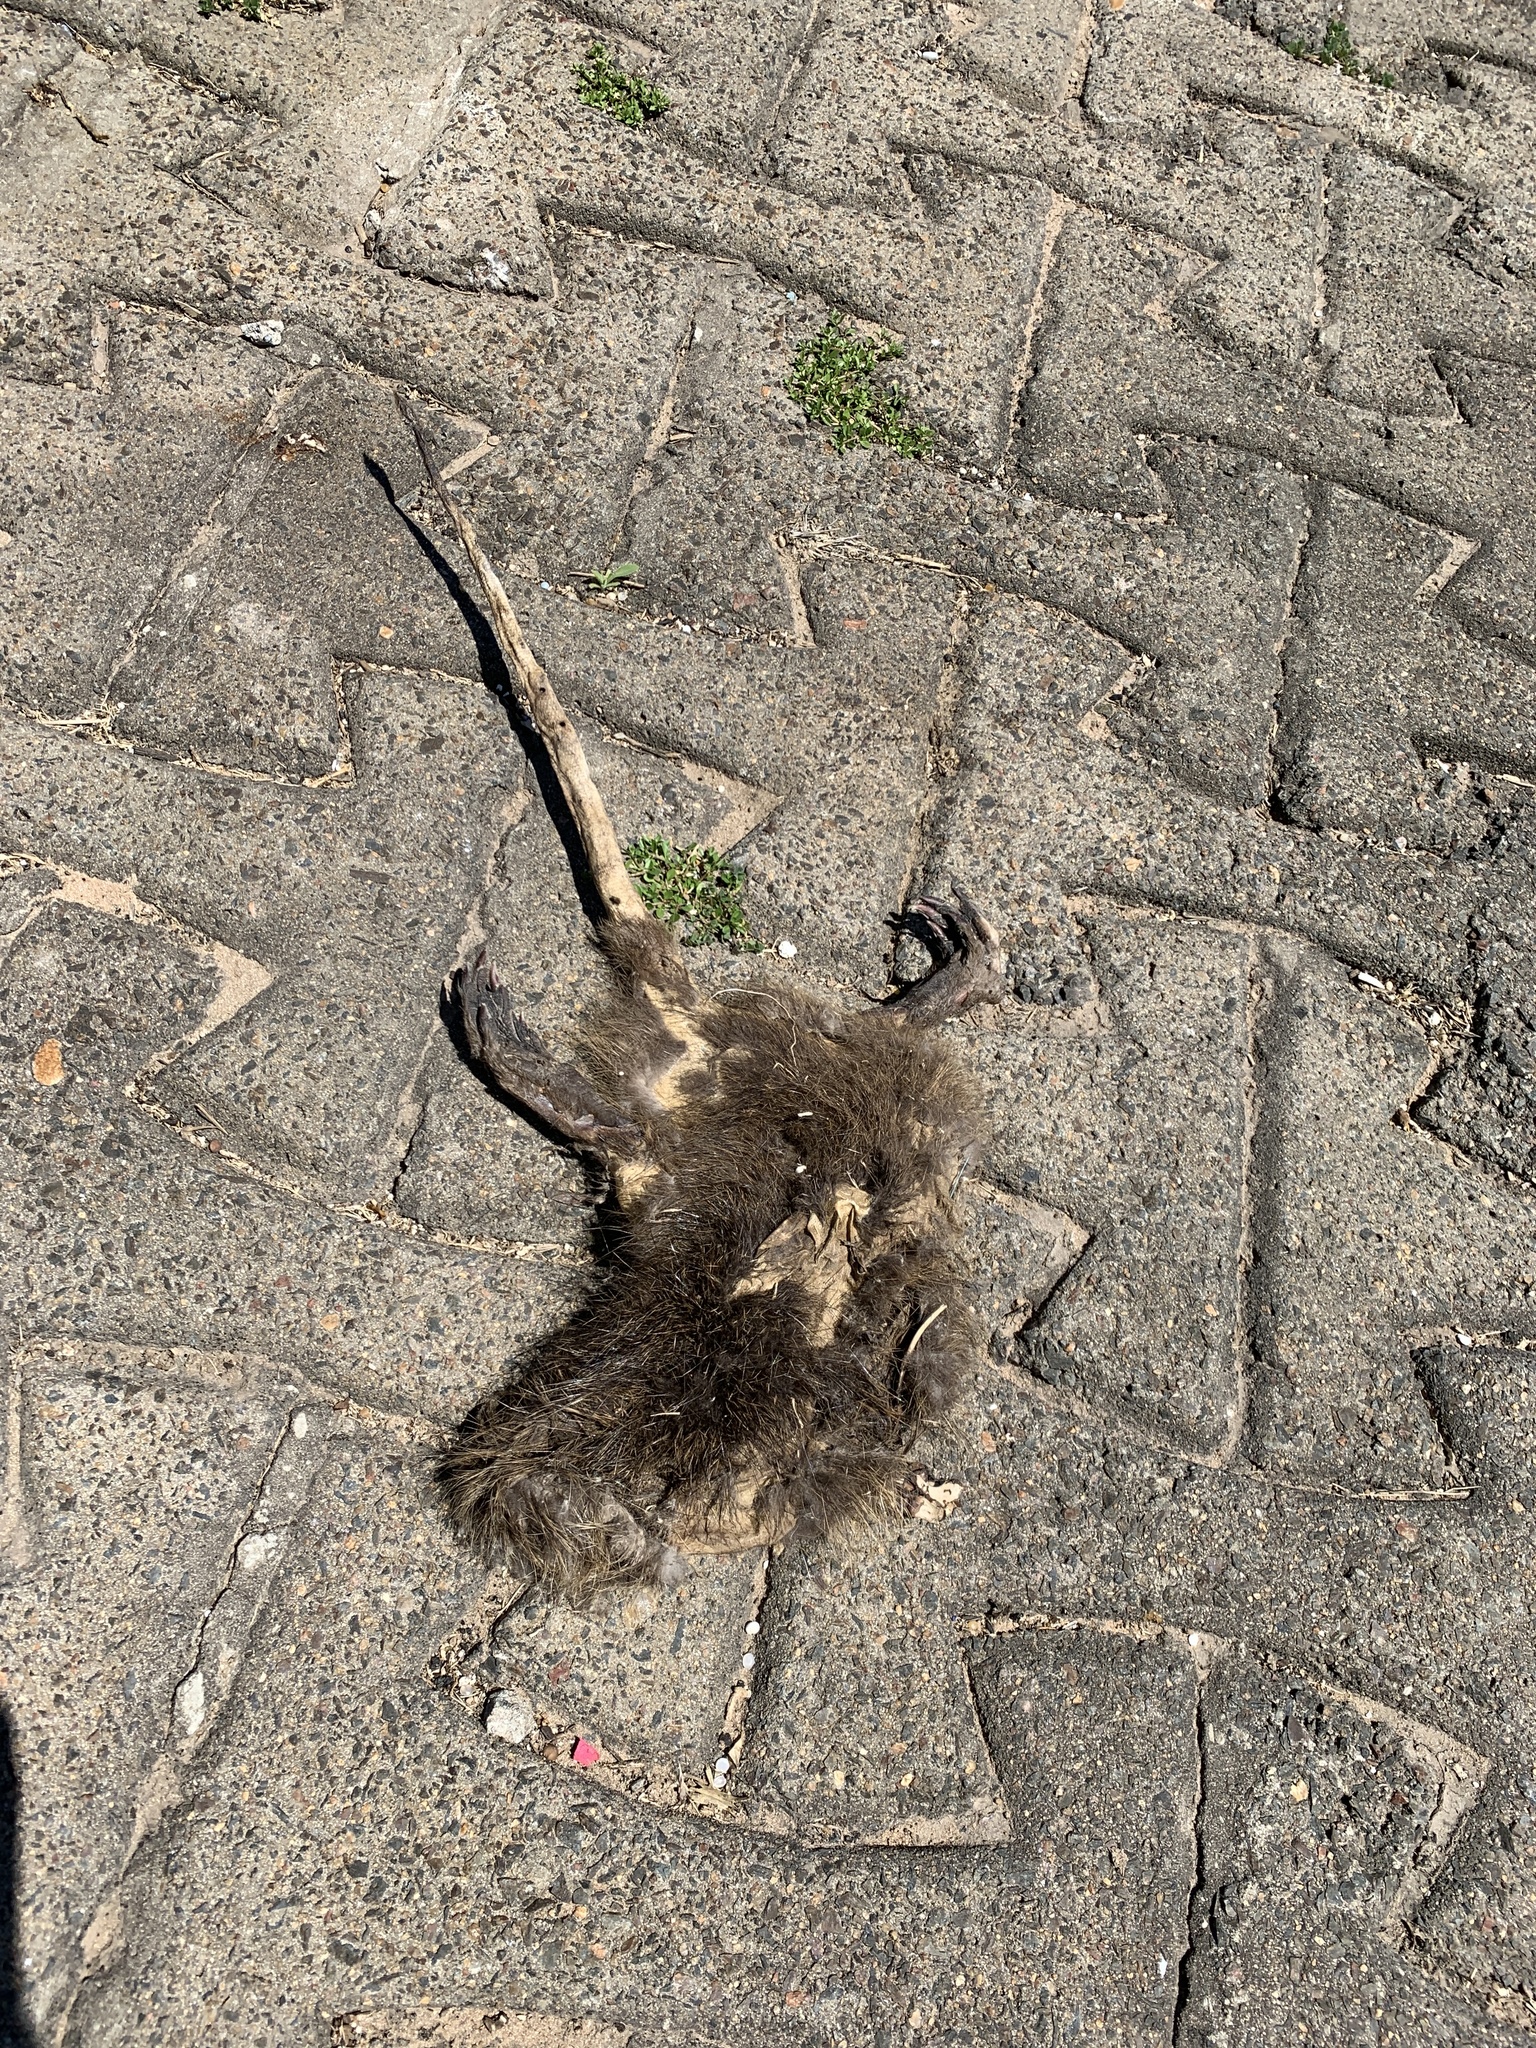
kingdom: Animalia
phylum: Chordata
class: Mammalia
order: Rodentia
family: Myocastoridae
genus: Myocastor
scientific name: Myocastor coypus
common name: Coypu
